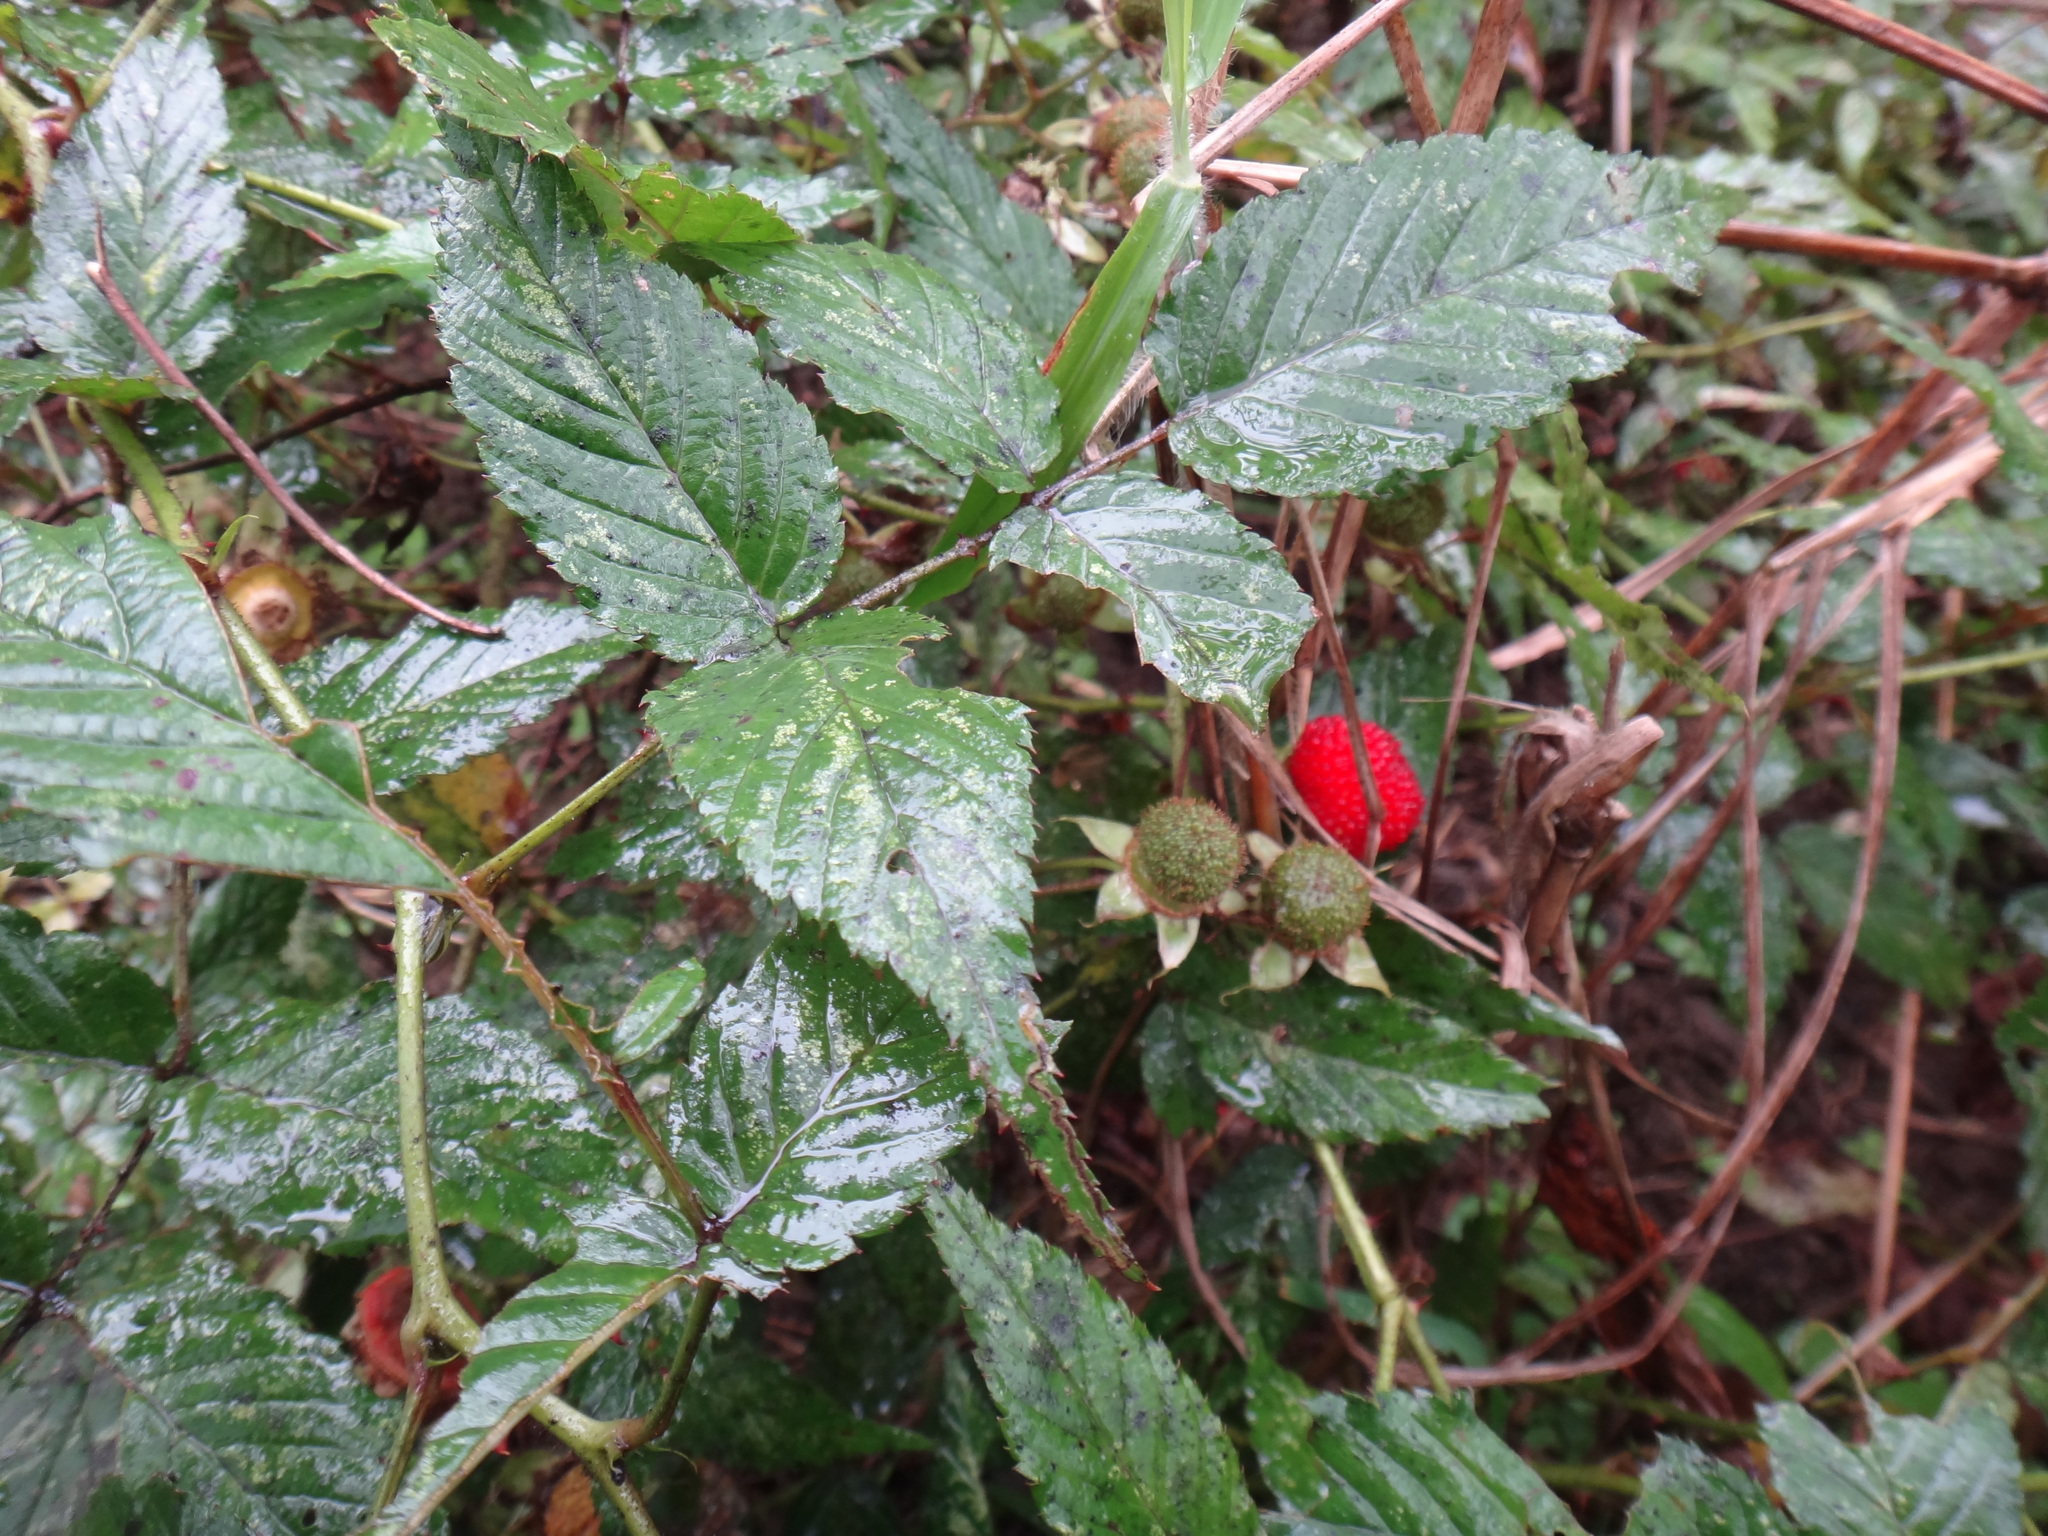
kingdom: Plantae
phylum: Tracheophyta
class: Magnoliopsida
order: Rosales
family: Rosaceae
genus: Rubus
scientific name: Rubus croceacanthus
